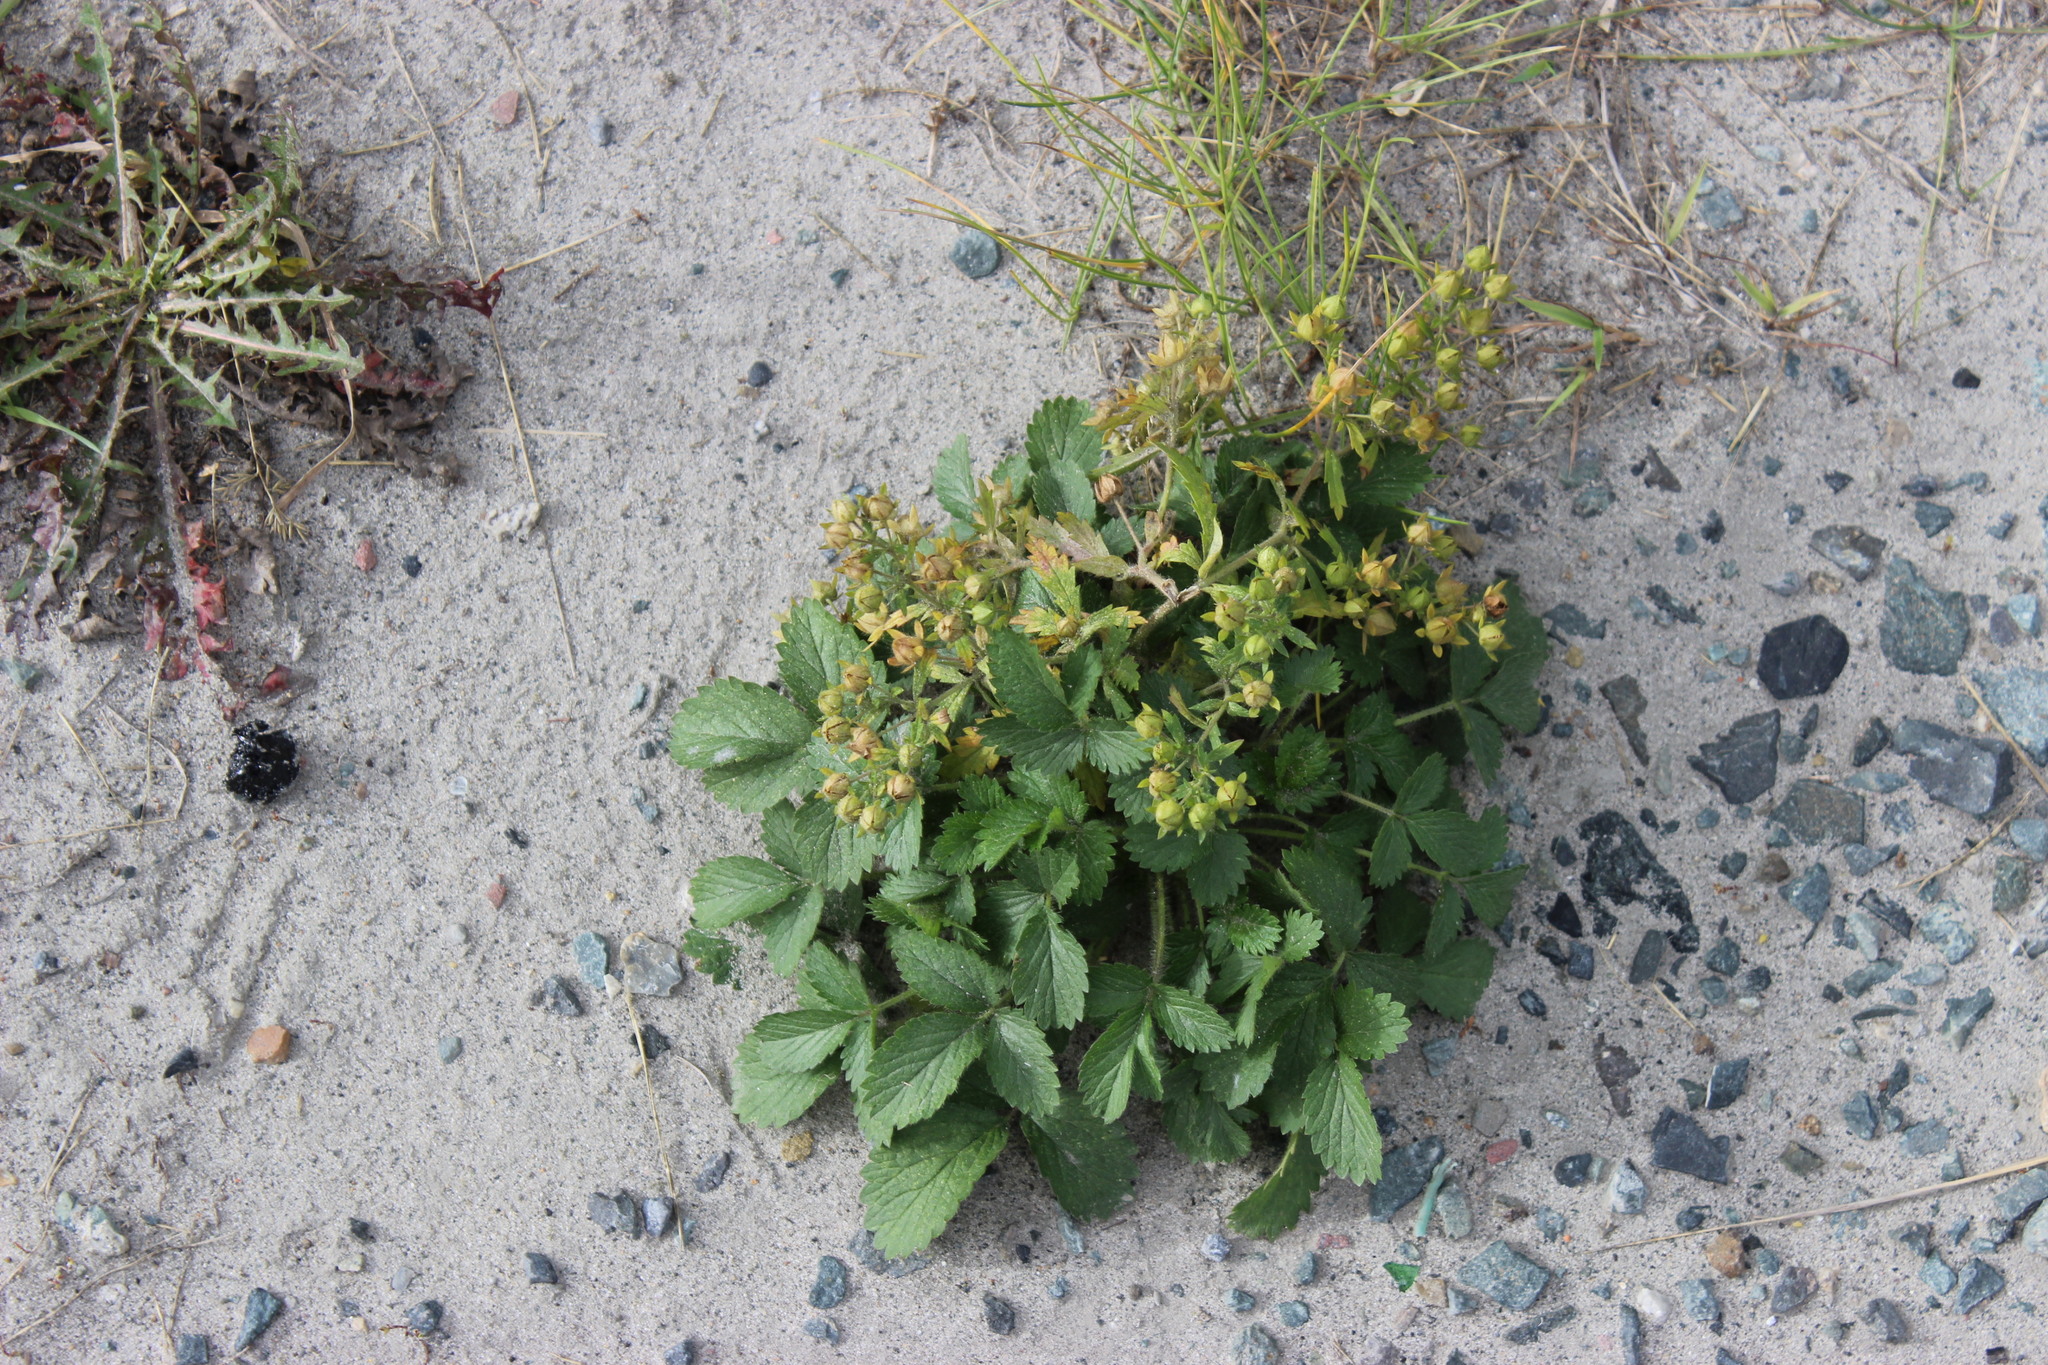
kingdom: Plantae
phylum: Tracheophyta
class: Magnoliopsida
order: Rosales
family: Rosaceae
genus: Potentilla
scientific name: Potentilla norvegica
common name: Ternate-leaved cinquefoil
